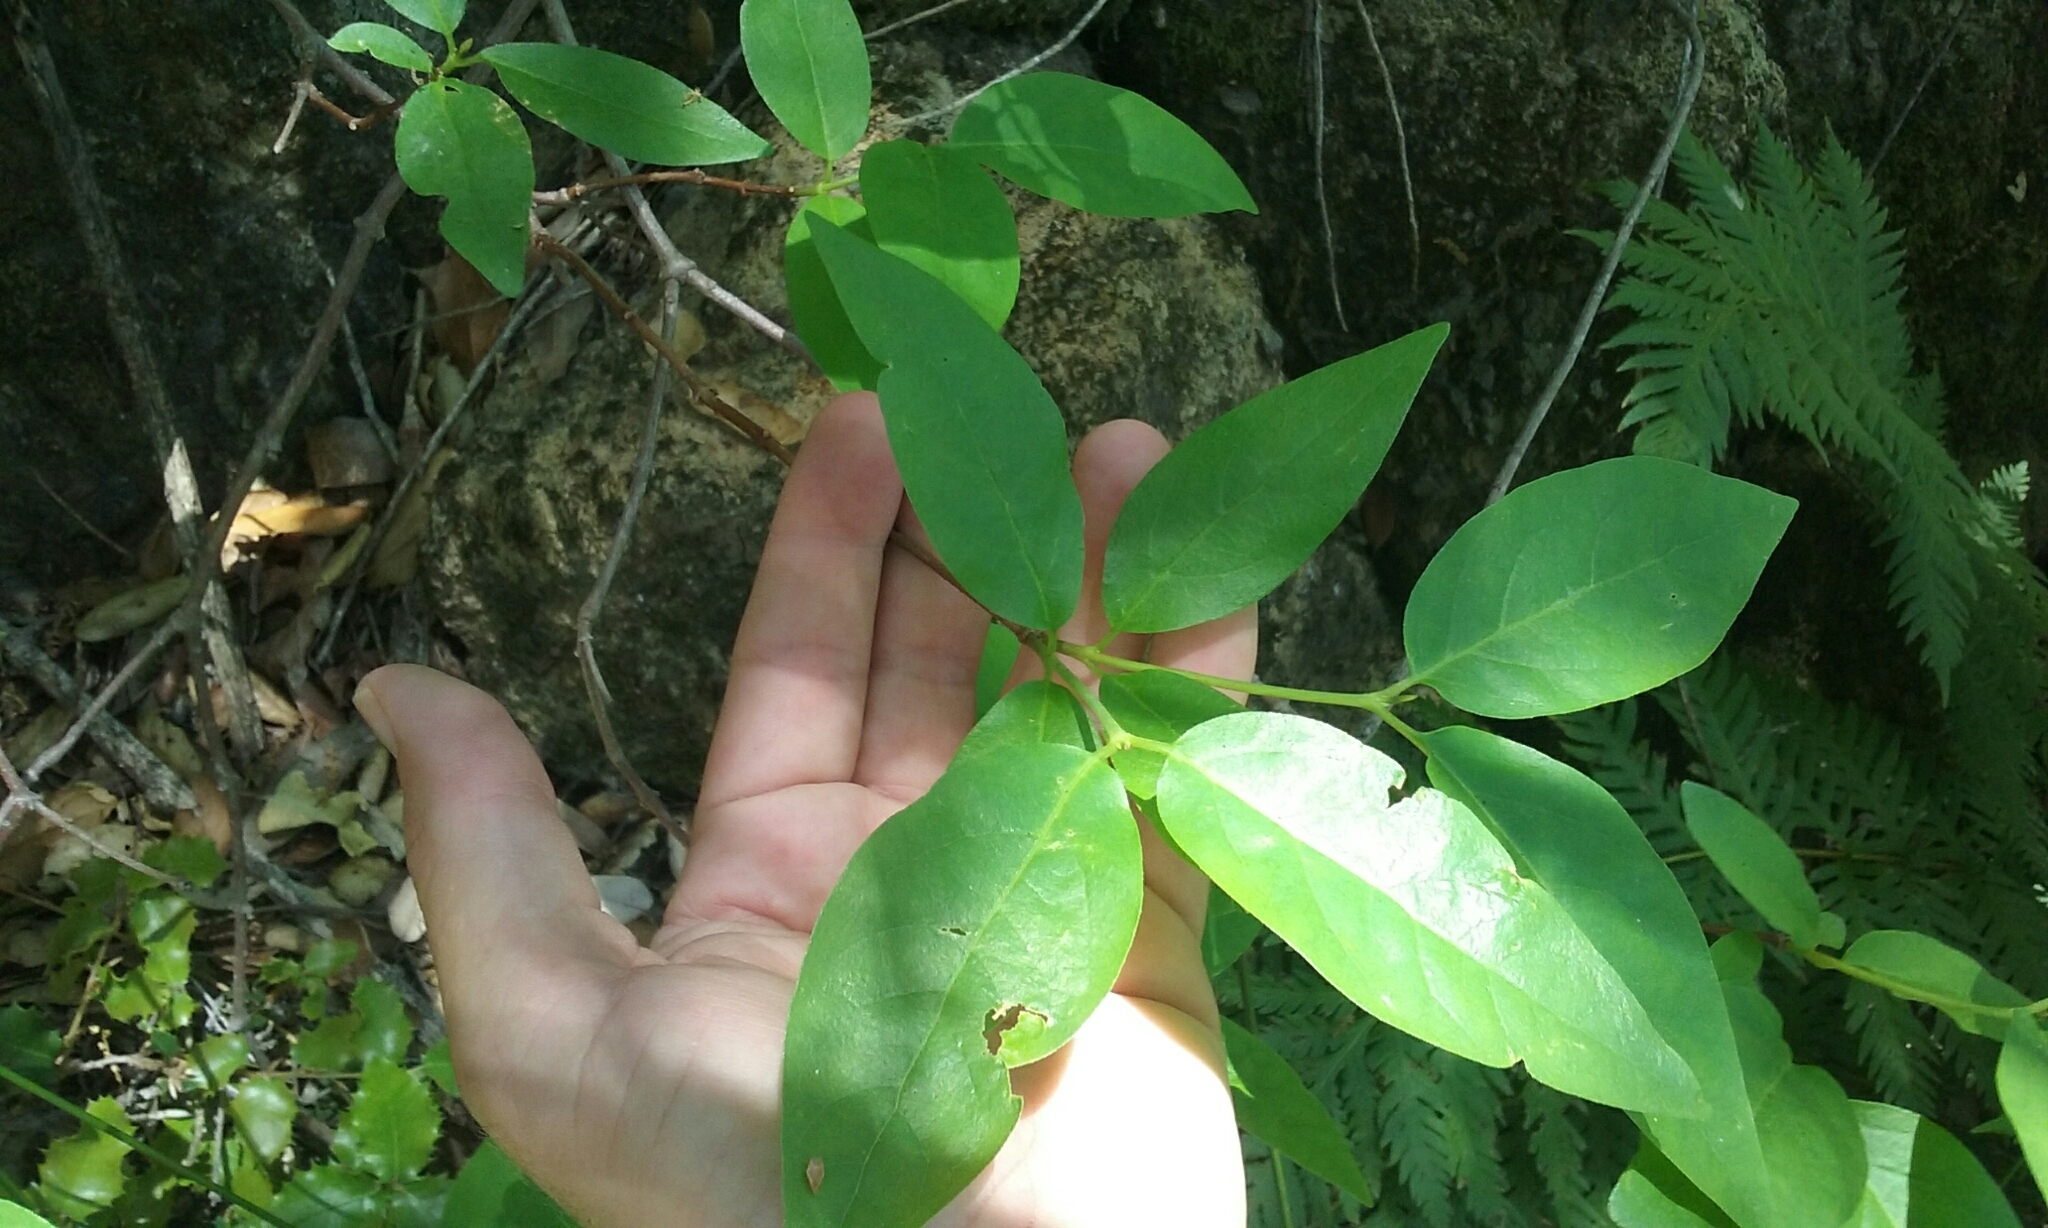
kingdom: Plantae
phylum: Tracheophyta
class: Magnoliopsida
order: Laurales
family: Calycanthaceae
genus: Calycanthus
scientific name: Calycanthus occidentalis
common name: California spicebush
